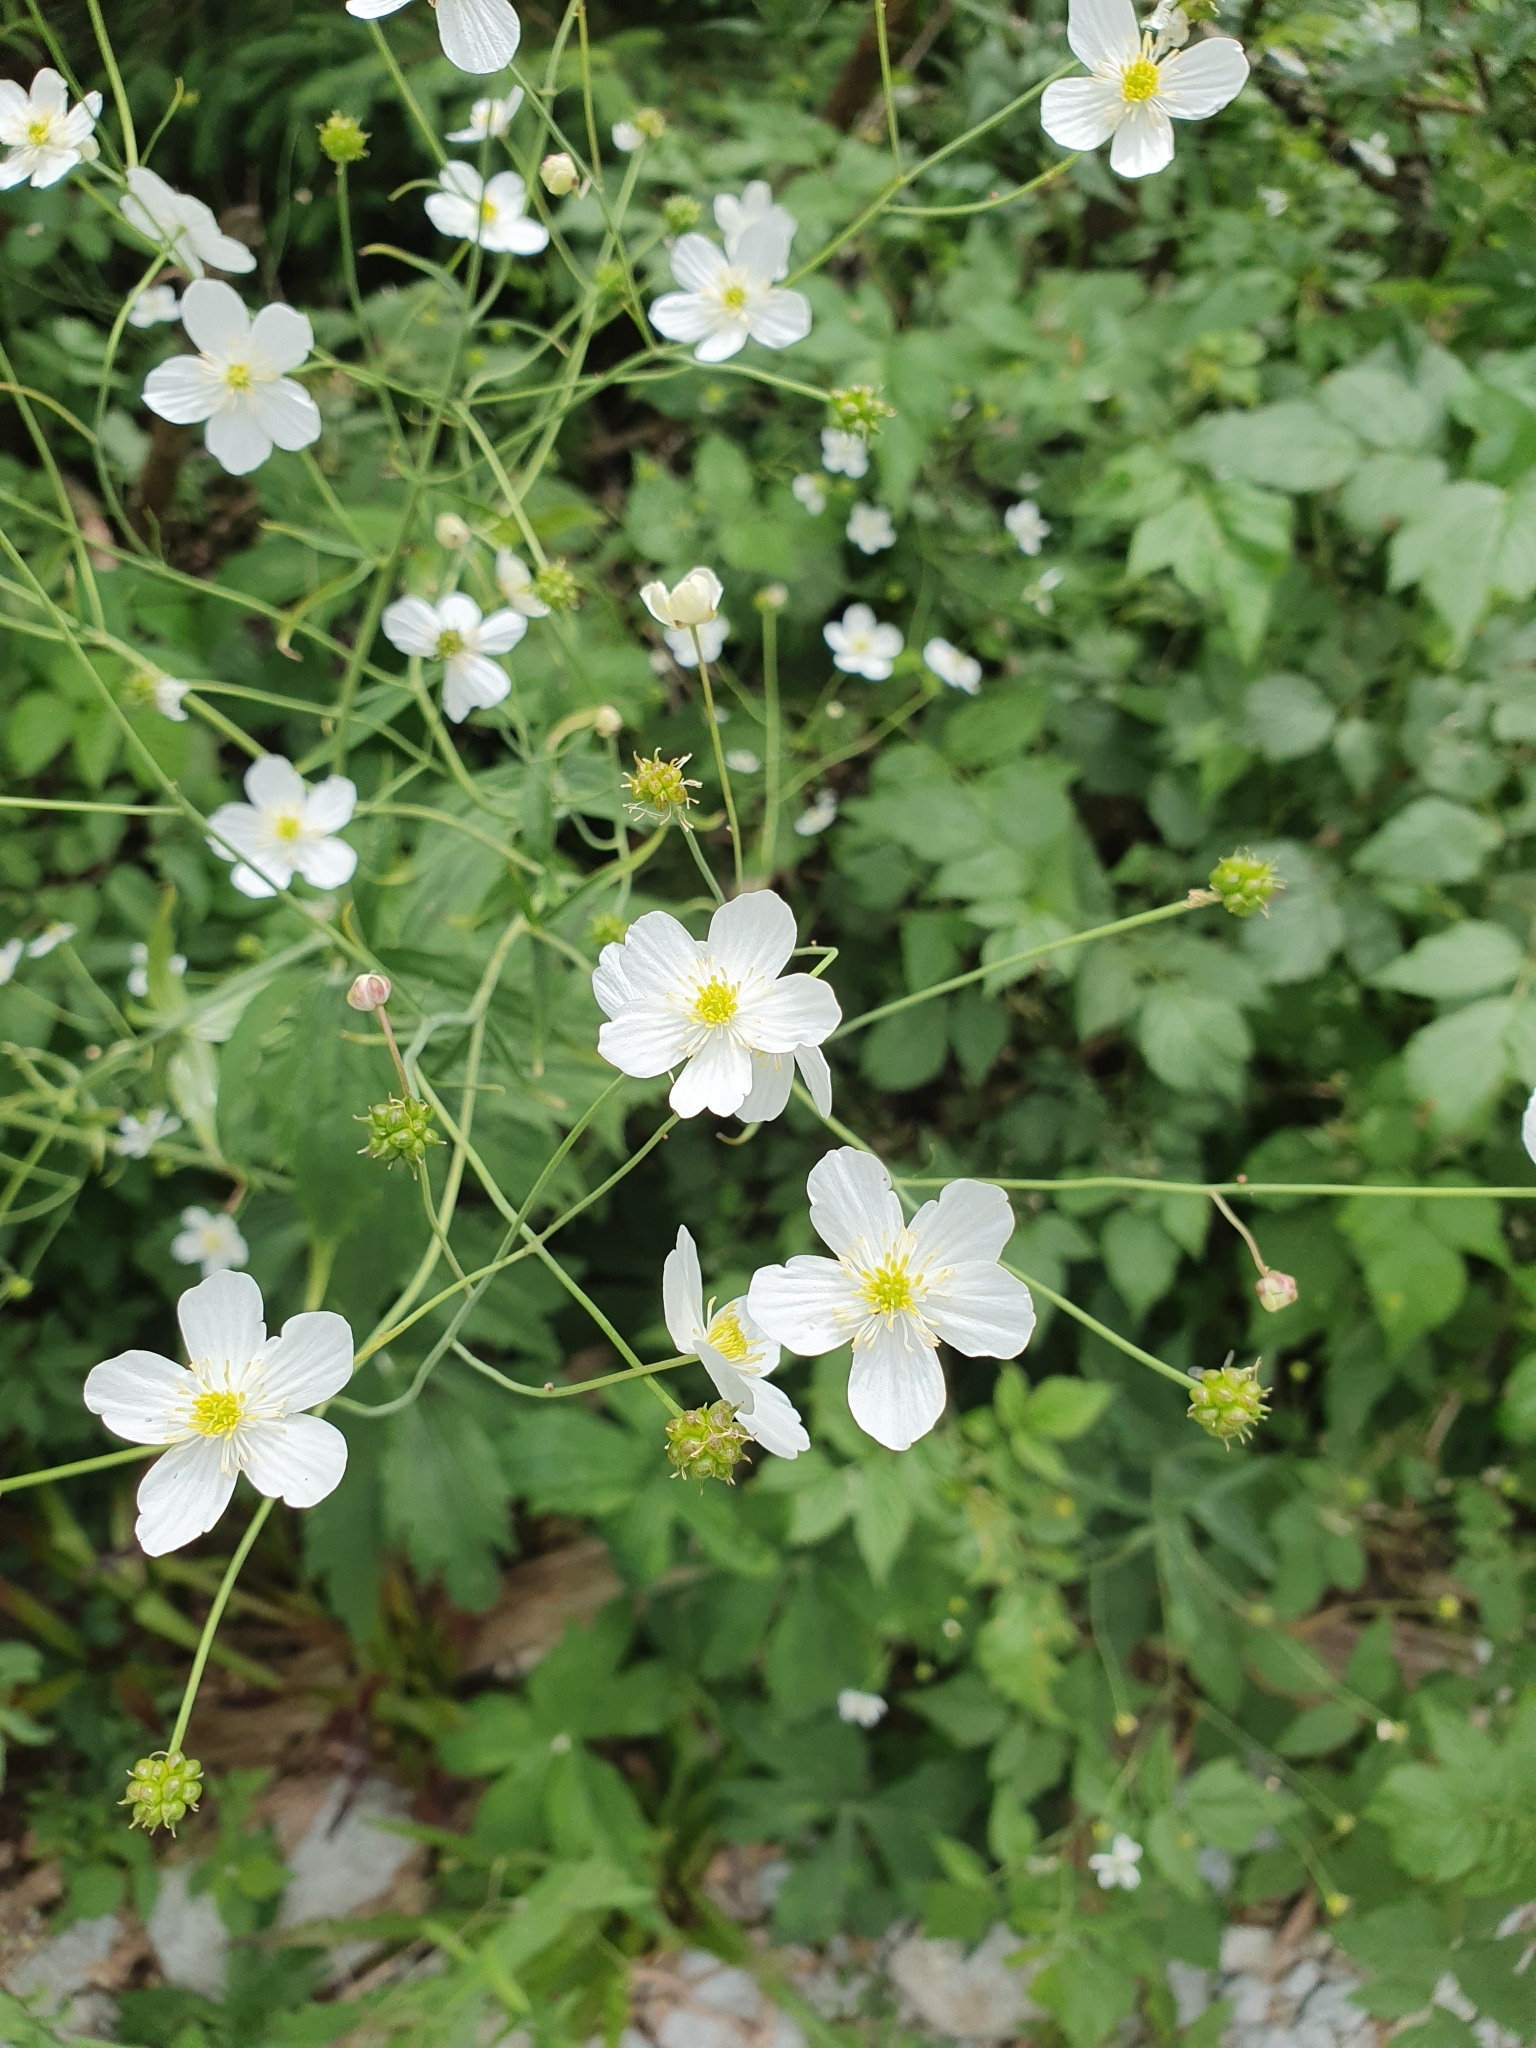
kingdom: Plantae
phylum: Tracheophyta
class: Magnoliopsida
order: Ranunculales
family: Ranunculaceae
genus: Ranunculus
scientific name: Ranunculus platanifolius
